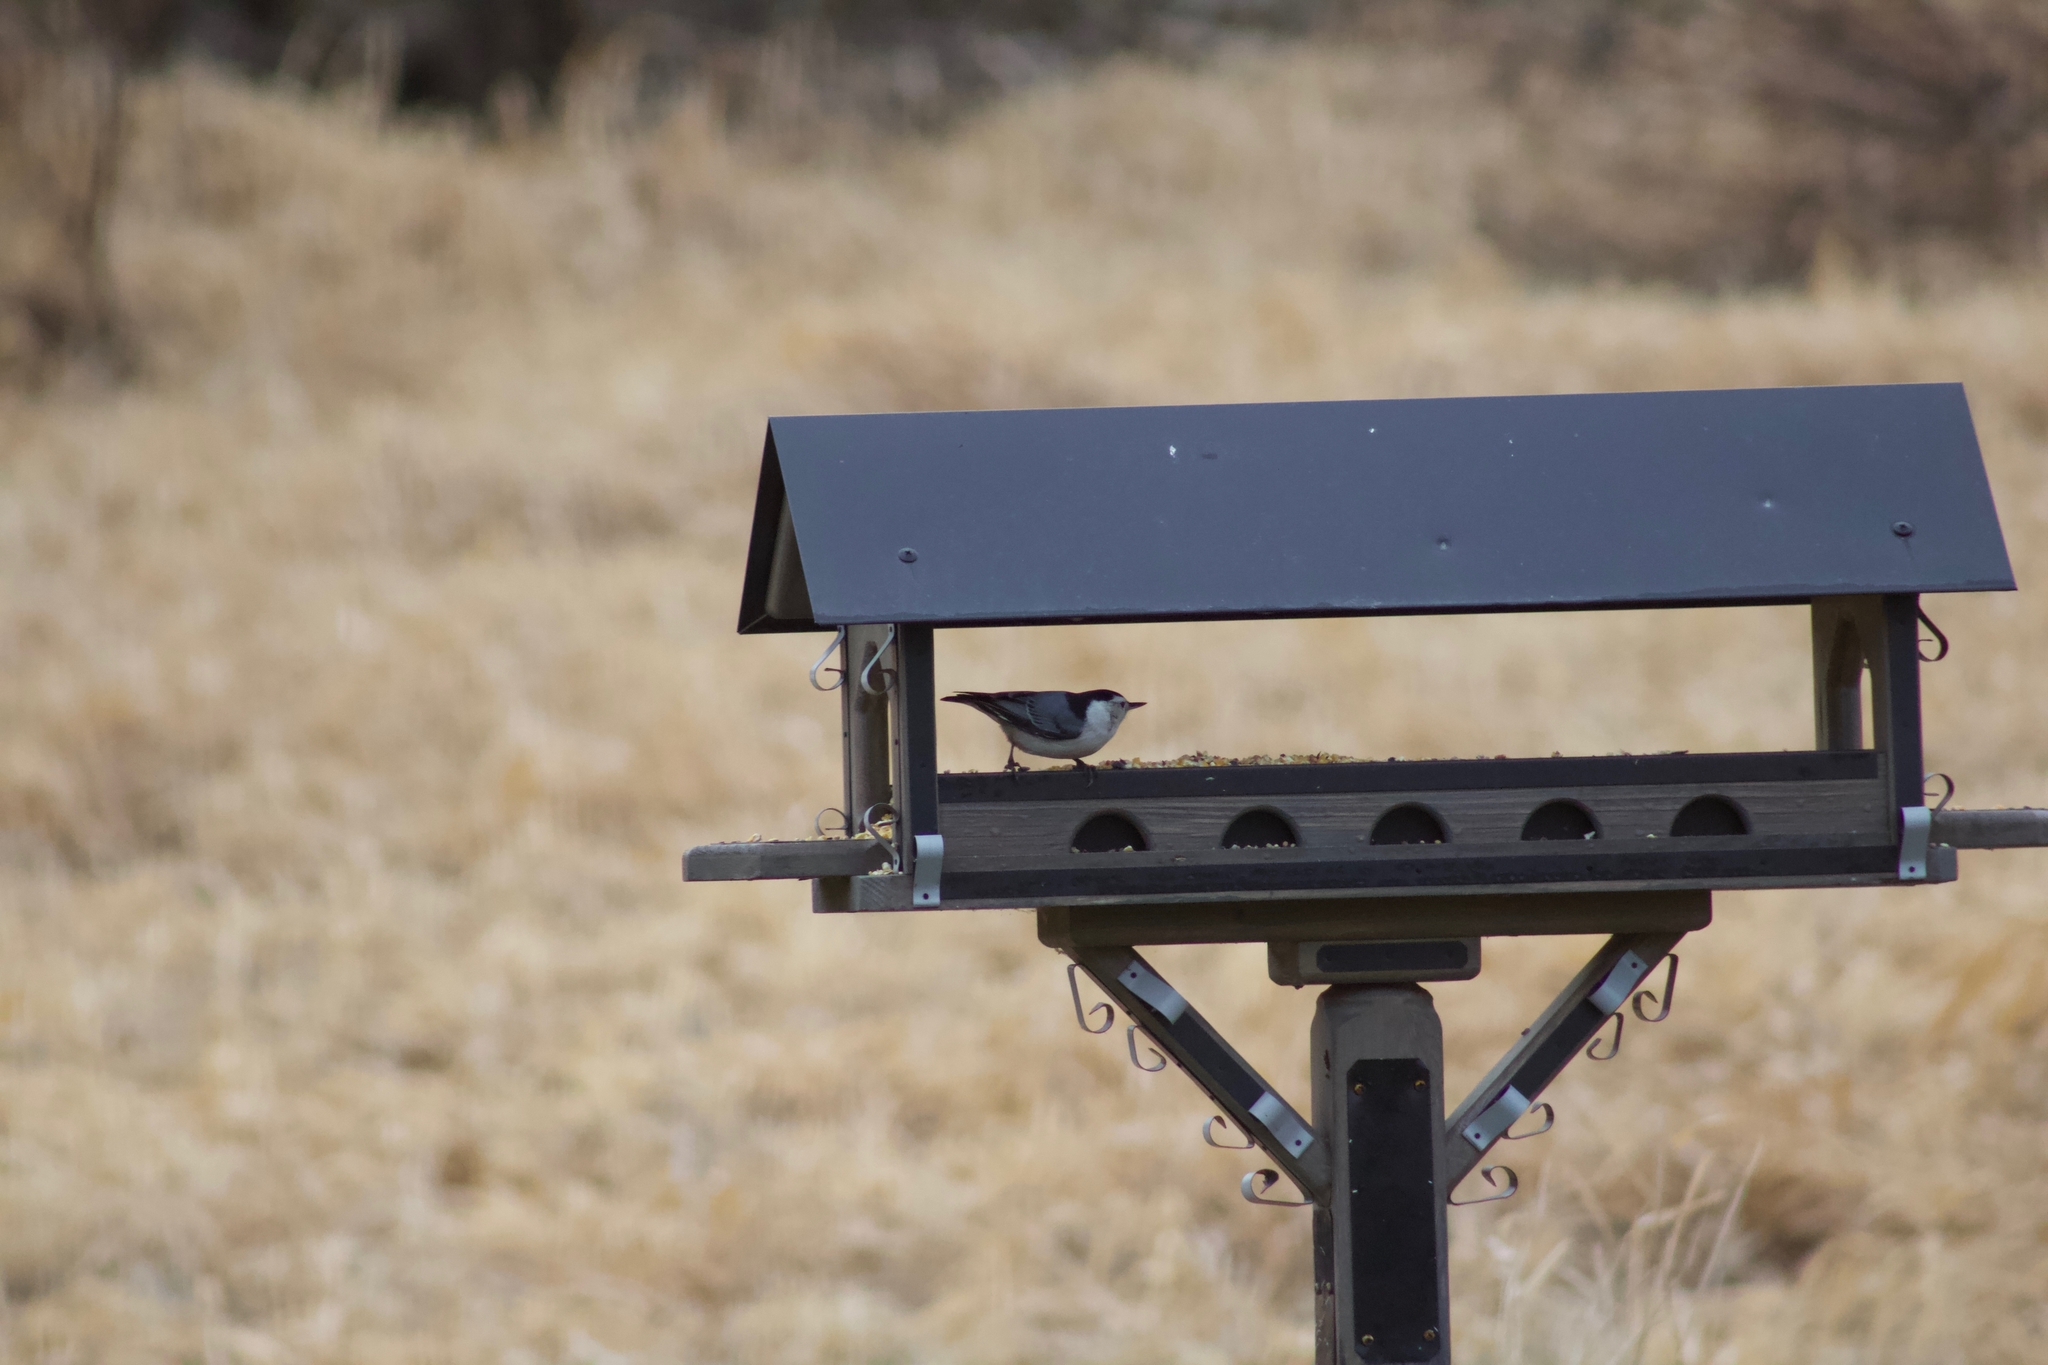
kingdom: Animalia
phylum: Chordata
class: Aves
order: Passeriformes
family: Sittidae
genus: Sitta
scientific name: Sitta carolinensis
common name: White-breasted nuthatch
